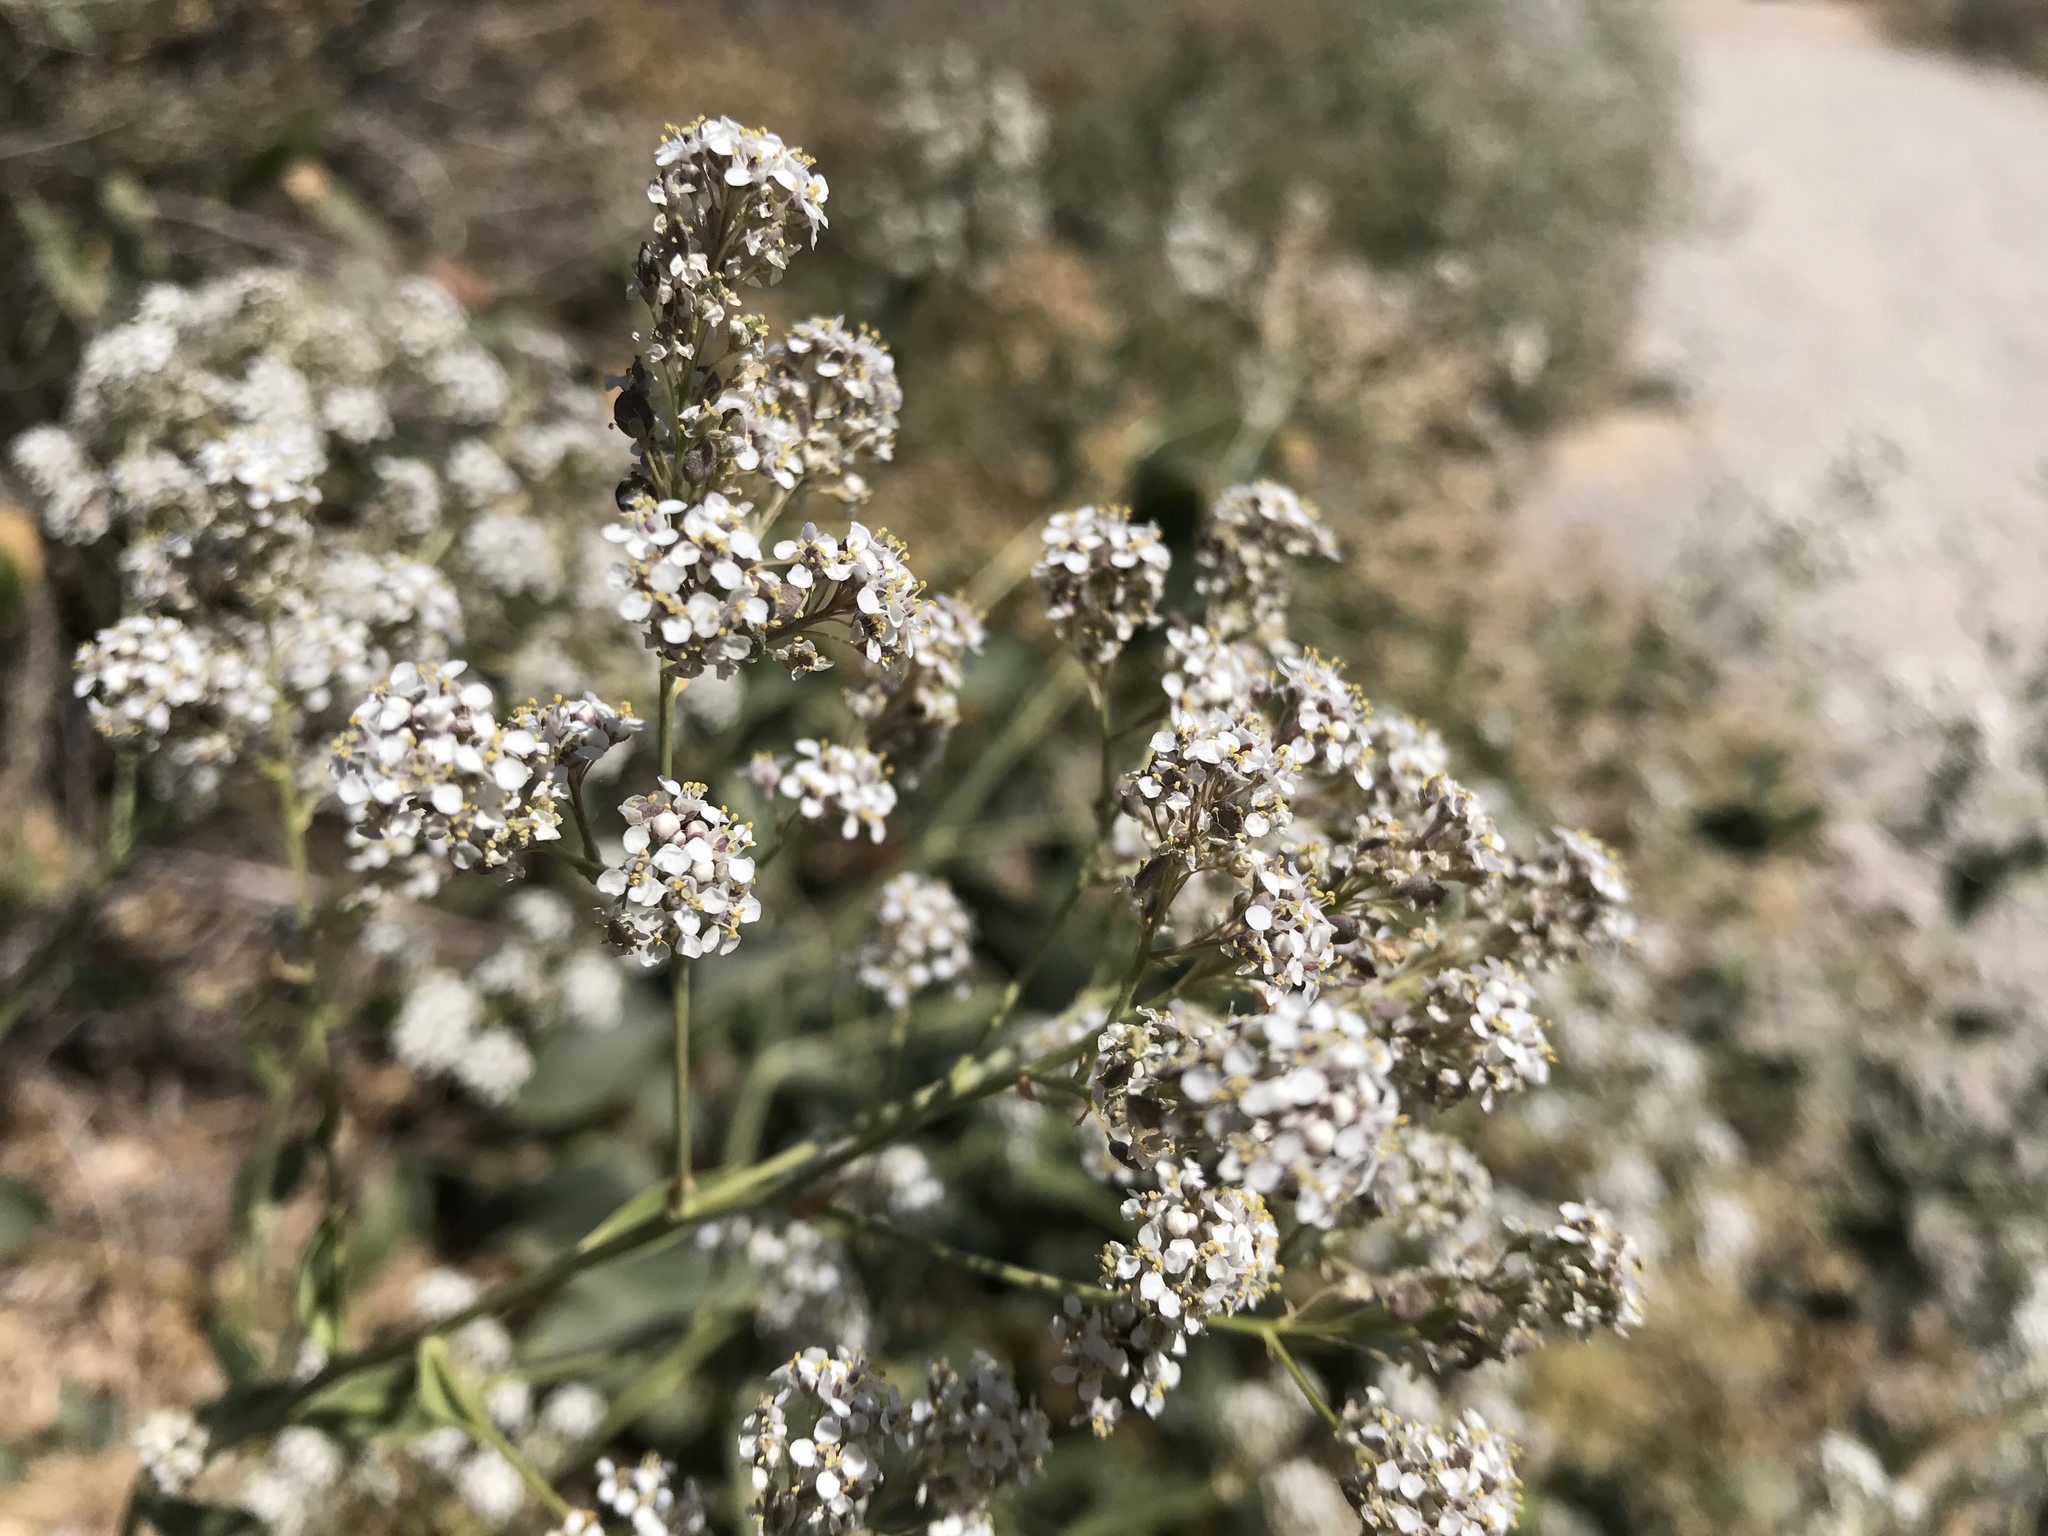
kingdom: Plantae
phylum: Tracheophyta
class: Magnoliopsida
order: Brassicales
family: Brassicaceae
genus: Lepidium
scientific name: Lepidium latifolium
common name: Dittander
